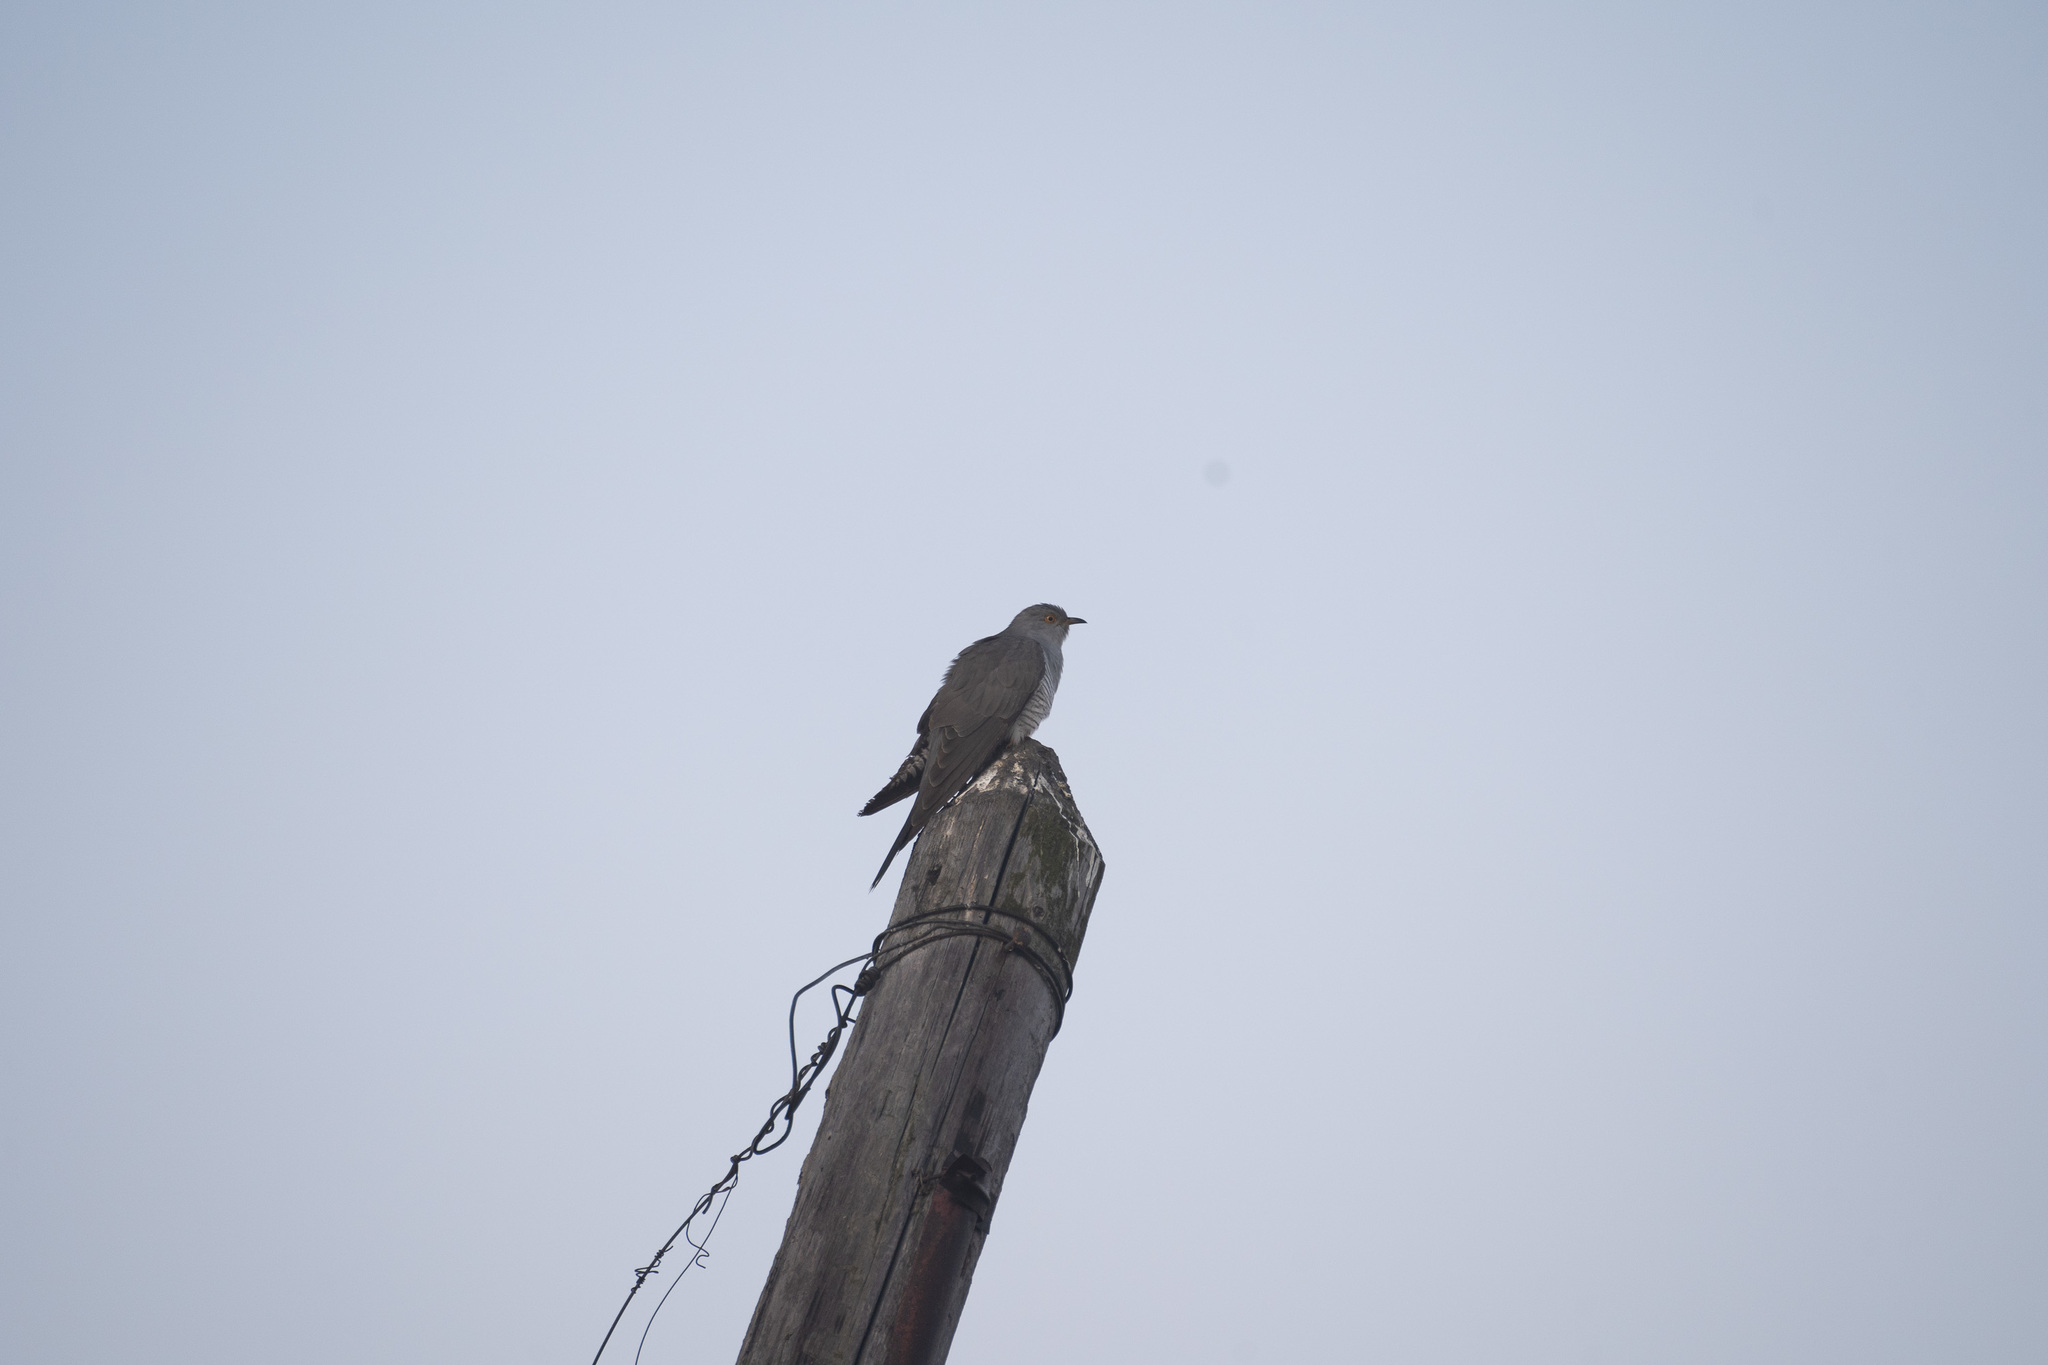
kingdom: Animalia
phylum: Chordata
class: Aves
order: Cuculiformes
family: Cuculidae
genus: Cuculus
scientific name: Cuculus canorus
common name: Common cuckoo
